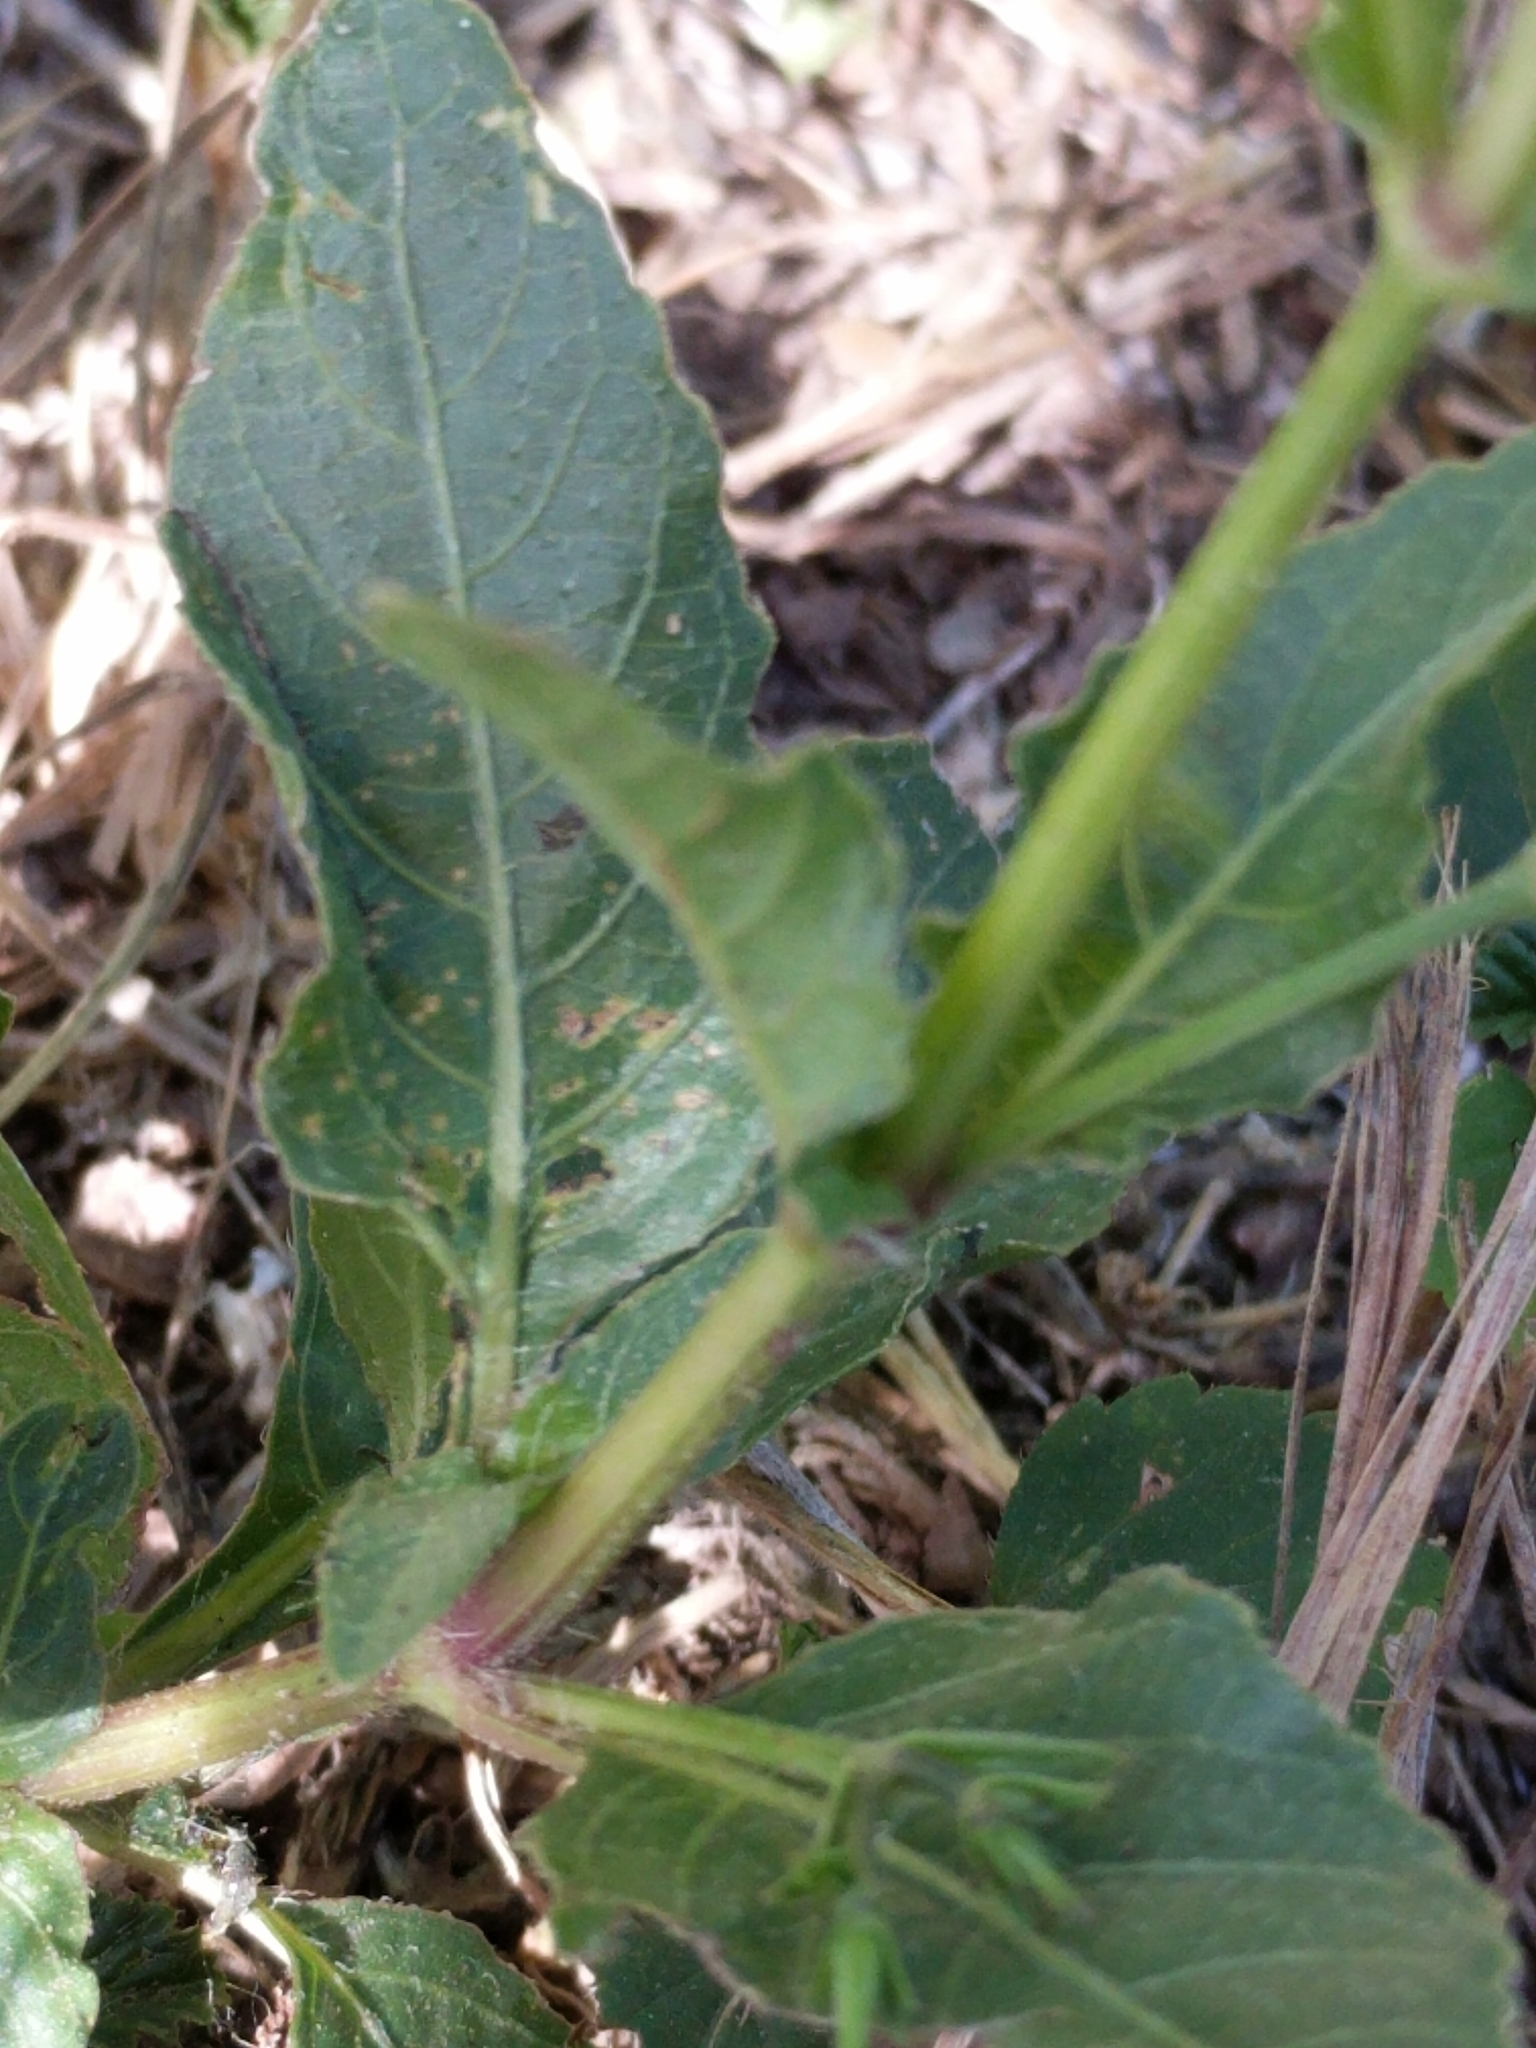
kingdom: Plantae
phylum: Tracheophyta
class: Magnoliopsida
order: Lamiales
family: Acanthaceae
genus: Ruellia
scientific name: Ruellia ciliatiflora
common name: Hairyflower wild petunia
